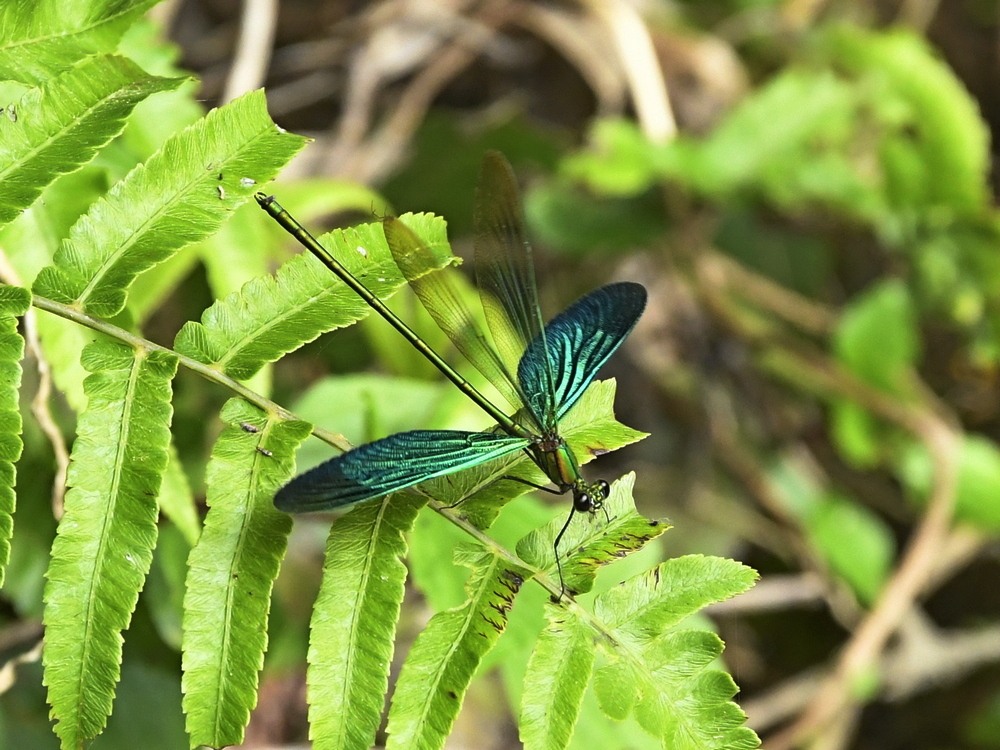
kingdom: Animalia
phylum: Arthropoda
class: Insecta
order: Odonata
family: Calopterygidae
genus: Neurobasis
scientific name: Neurobasis chinensis
